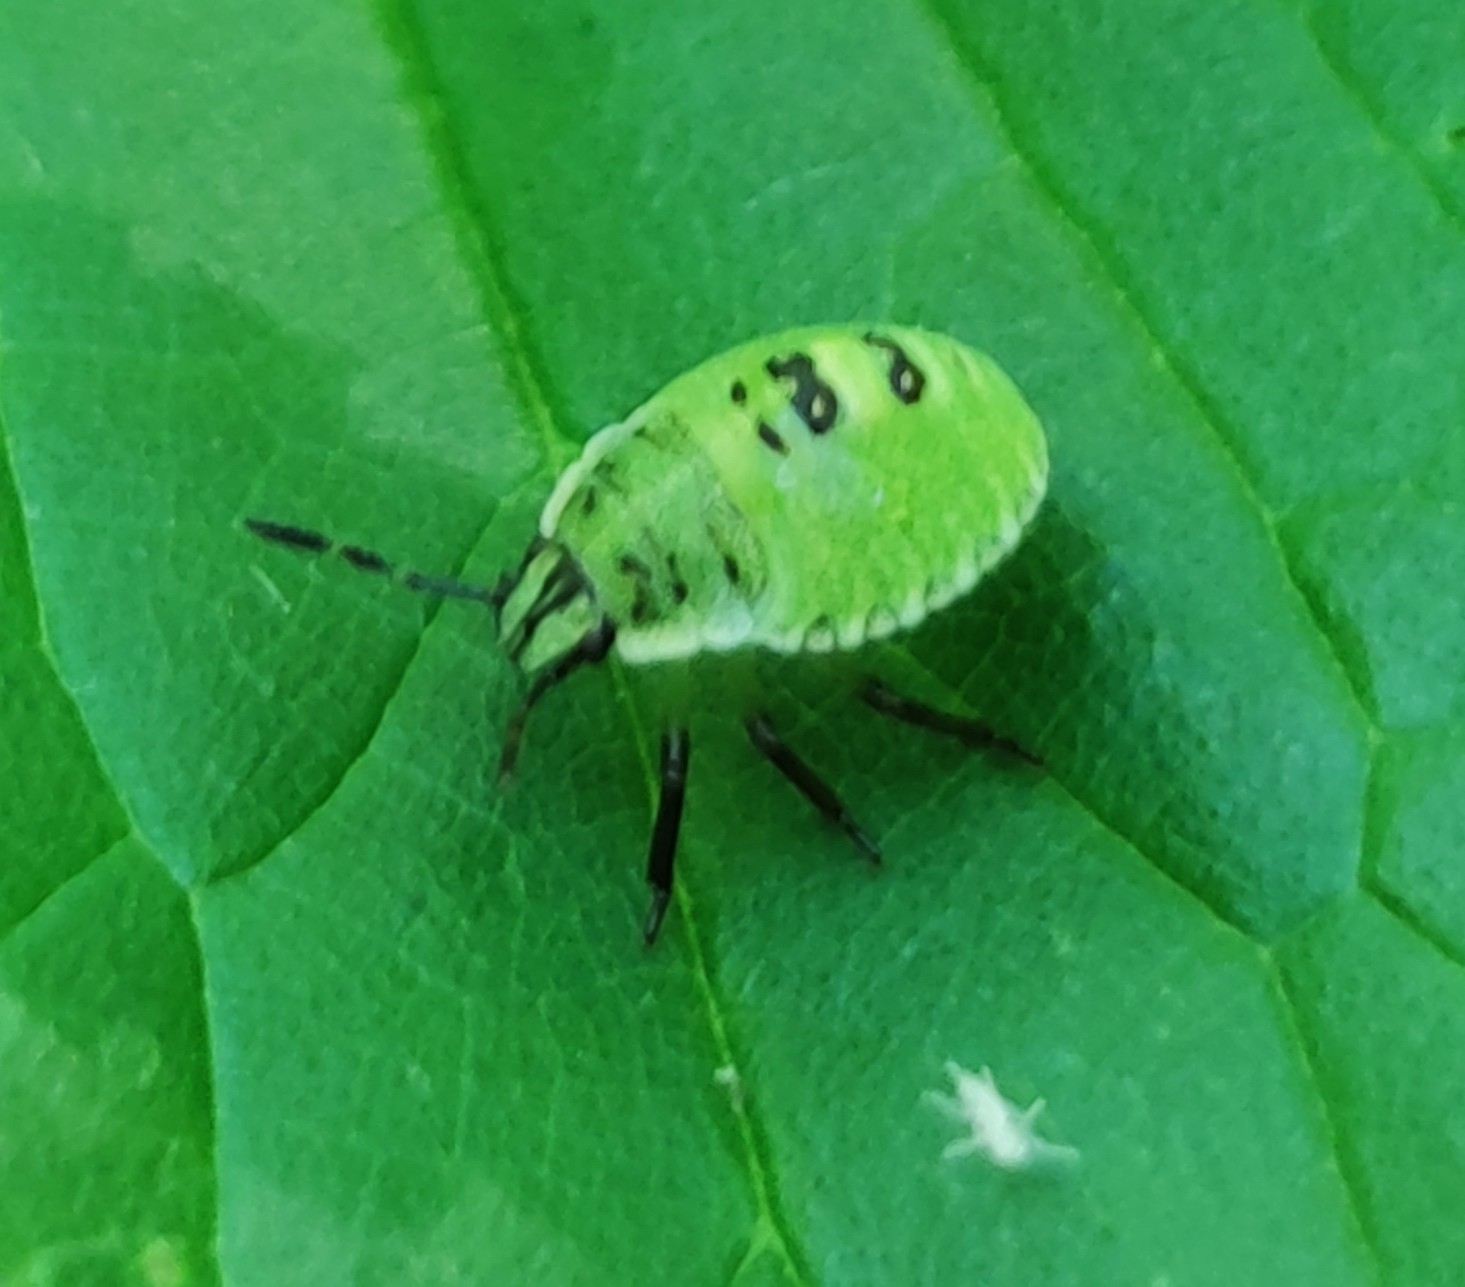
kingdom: Animalia
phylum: Arthropoda
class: Insecta
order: Hemiptera
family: Pentatomidae
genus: Palomena
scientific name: Palomena prasina
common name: Green shieldbug
